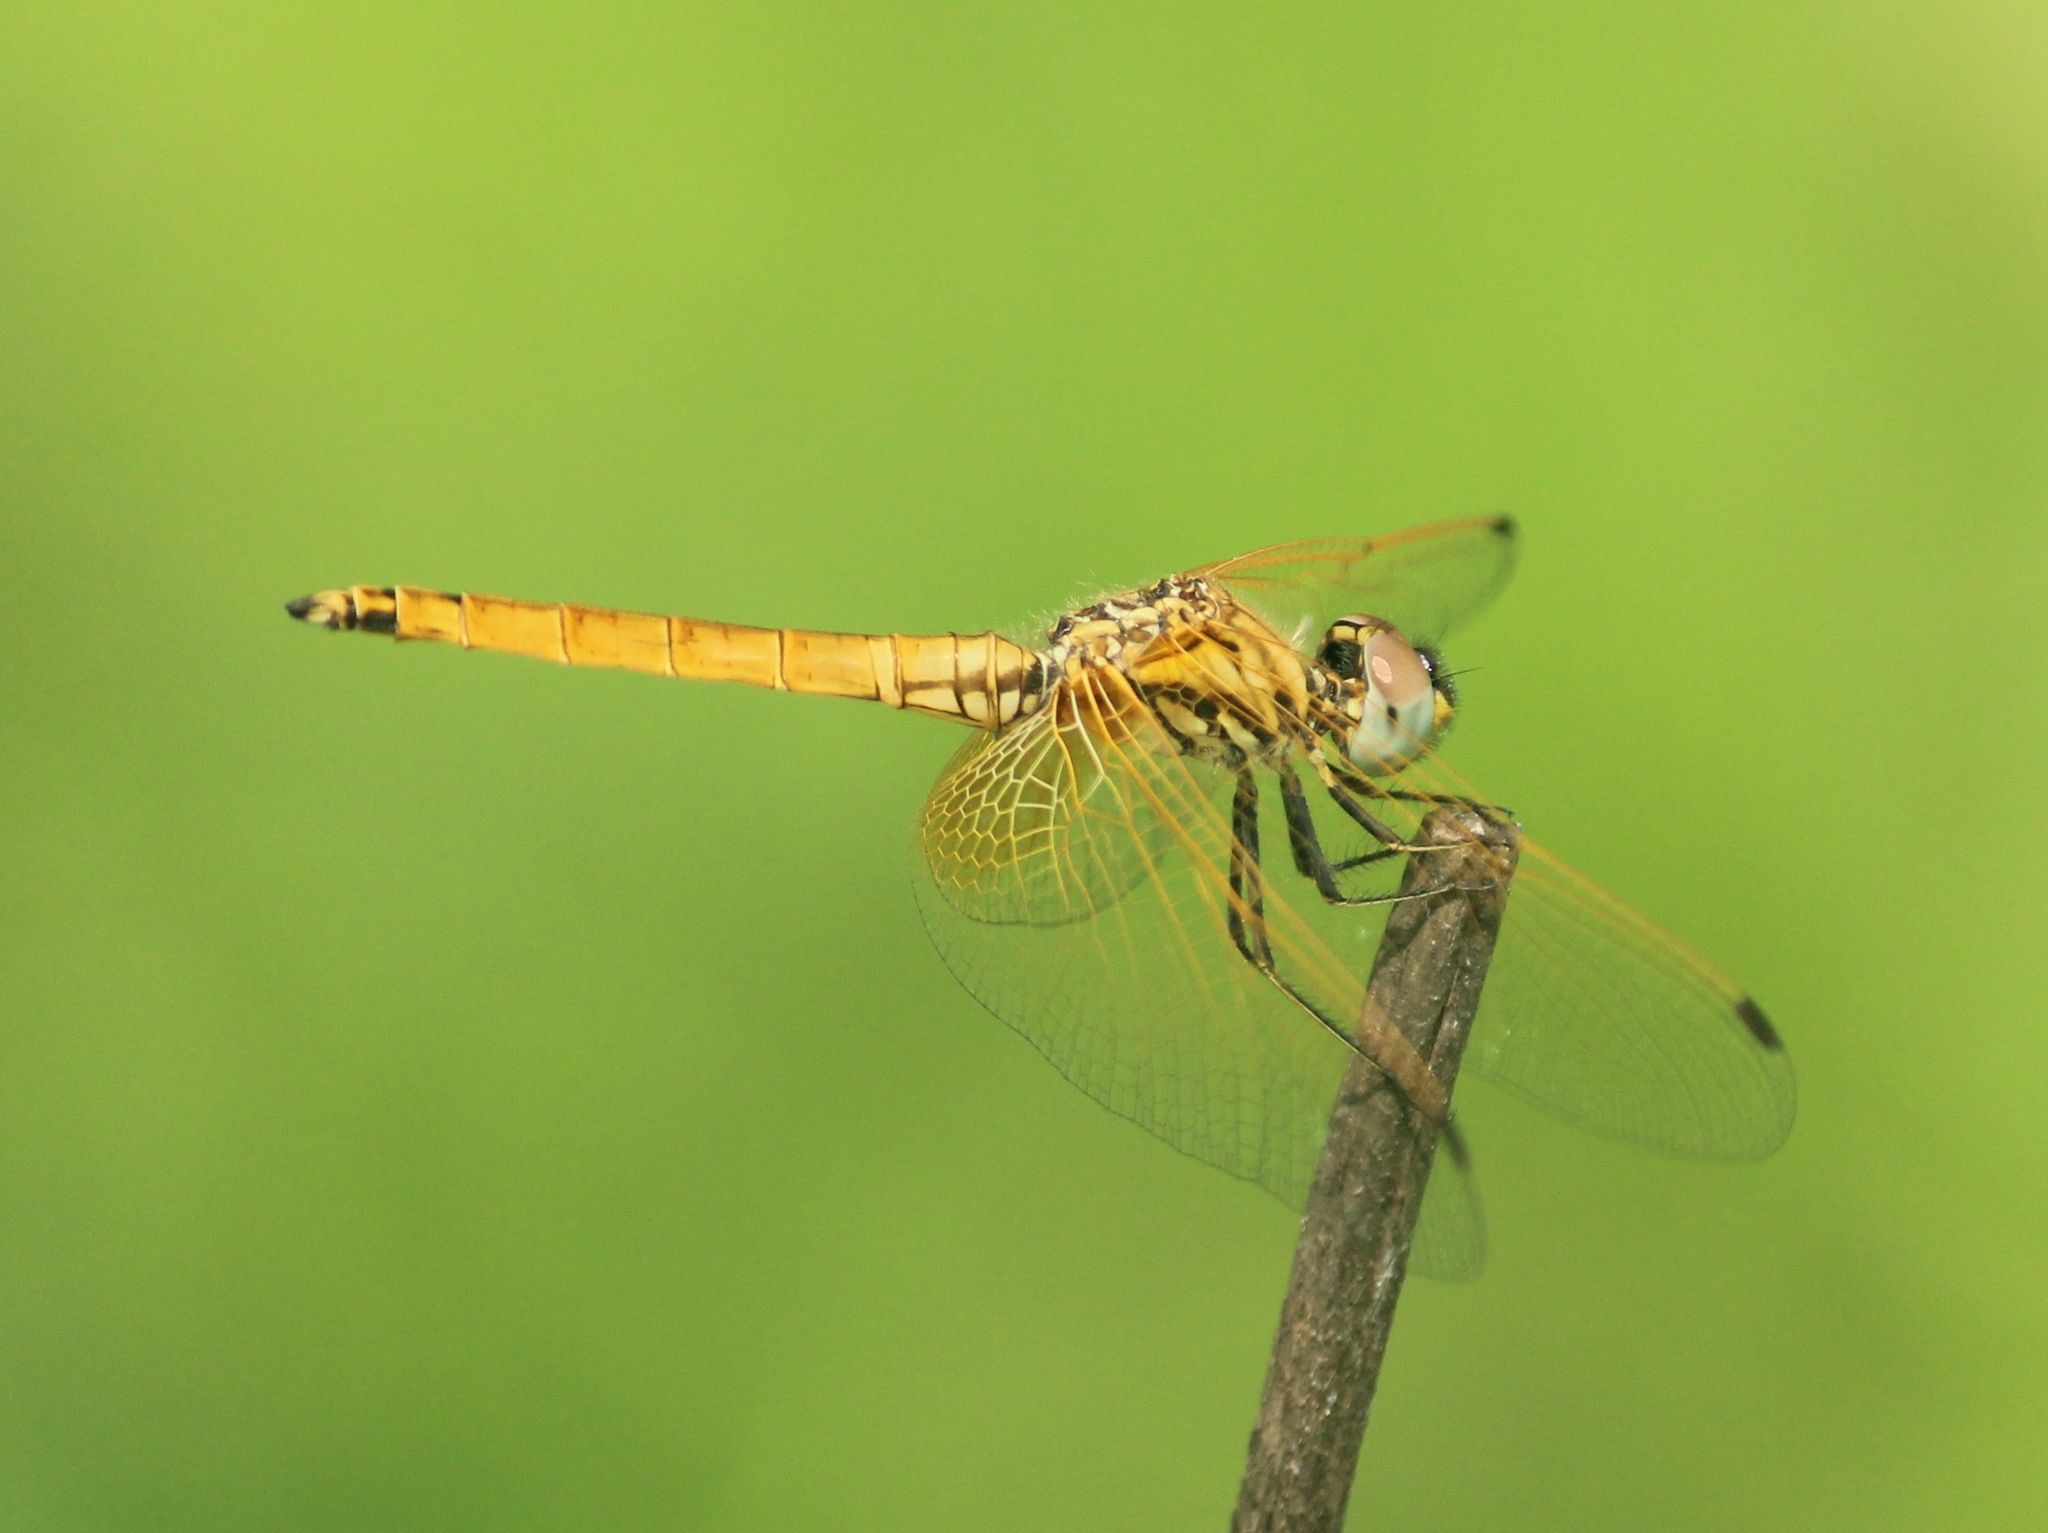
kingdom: Animalia
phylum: Arthropoda
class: Insecta
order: Odonata
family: Libellulidae
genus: Trithemis
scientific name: Trithemis aurora
